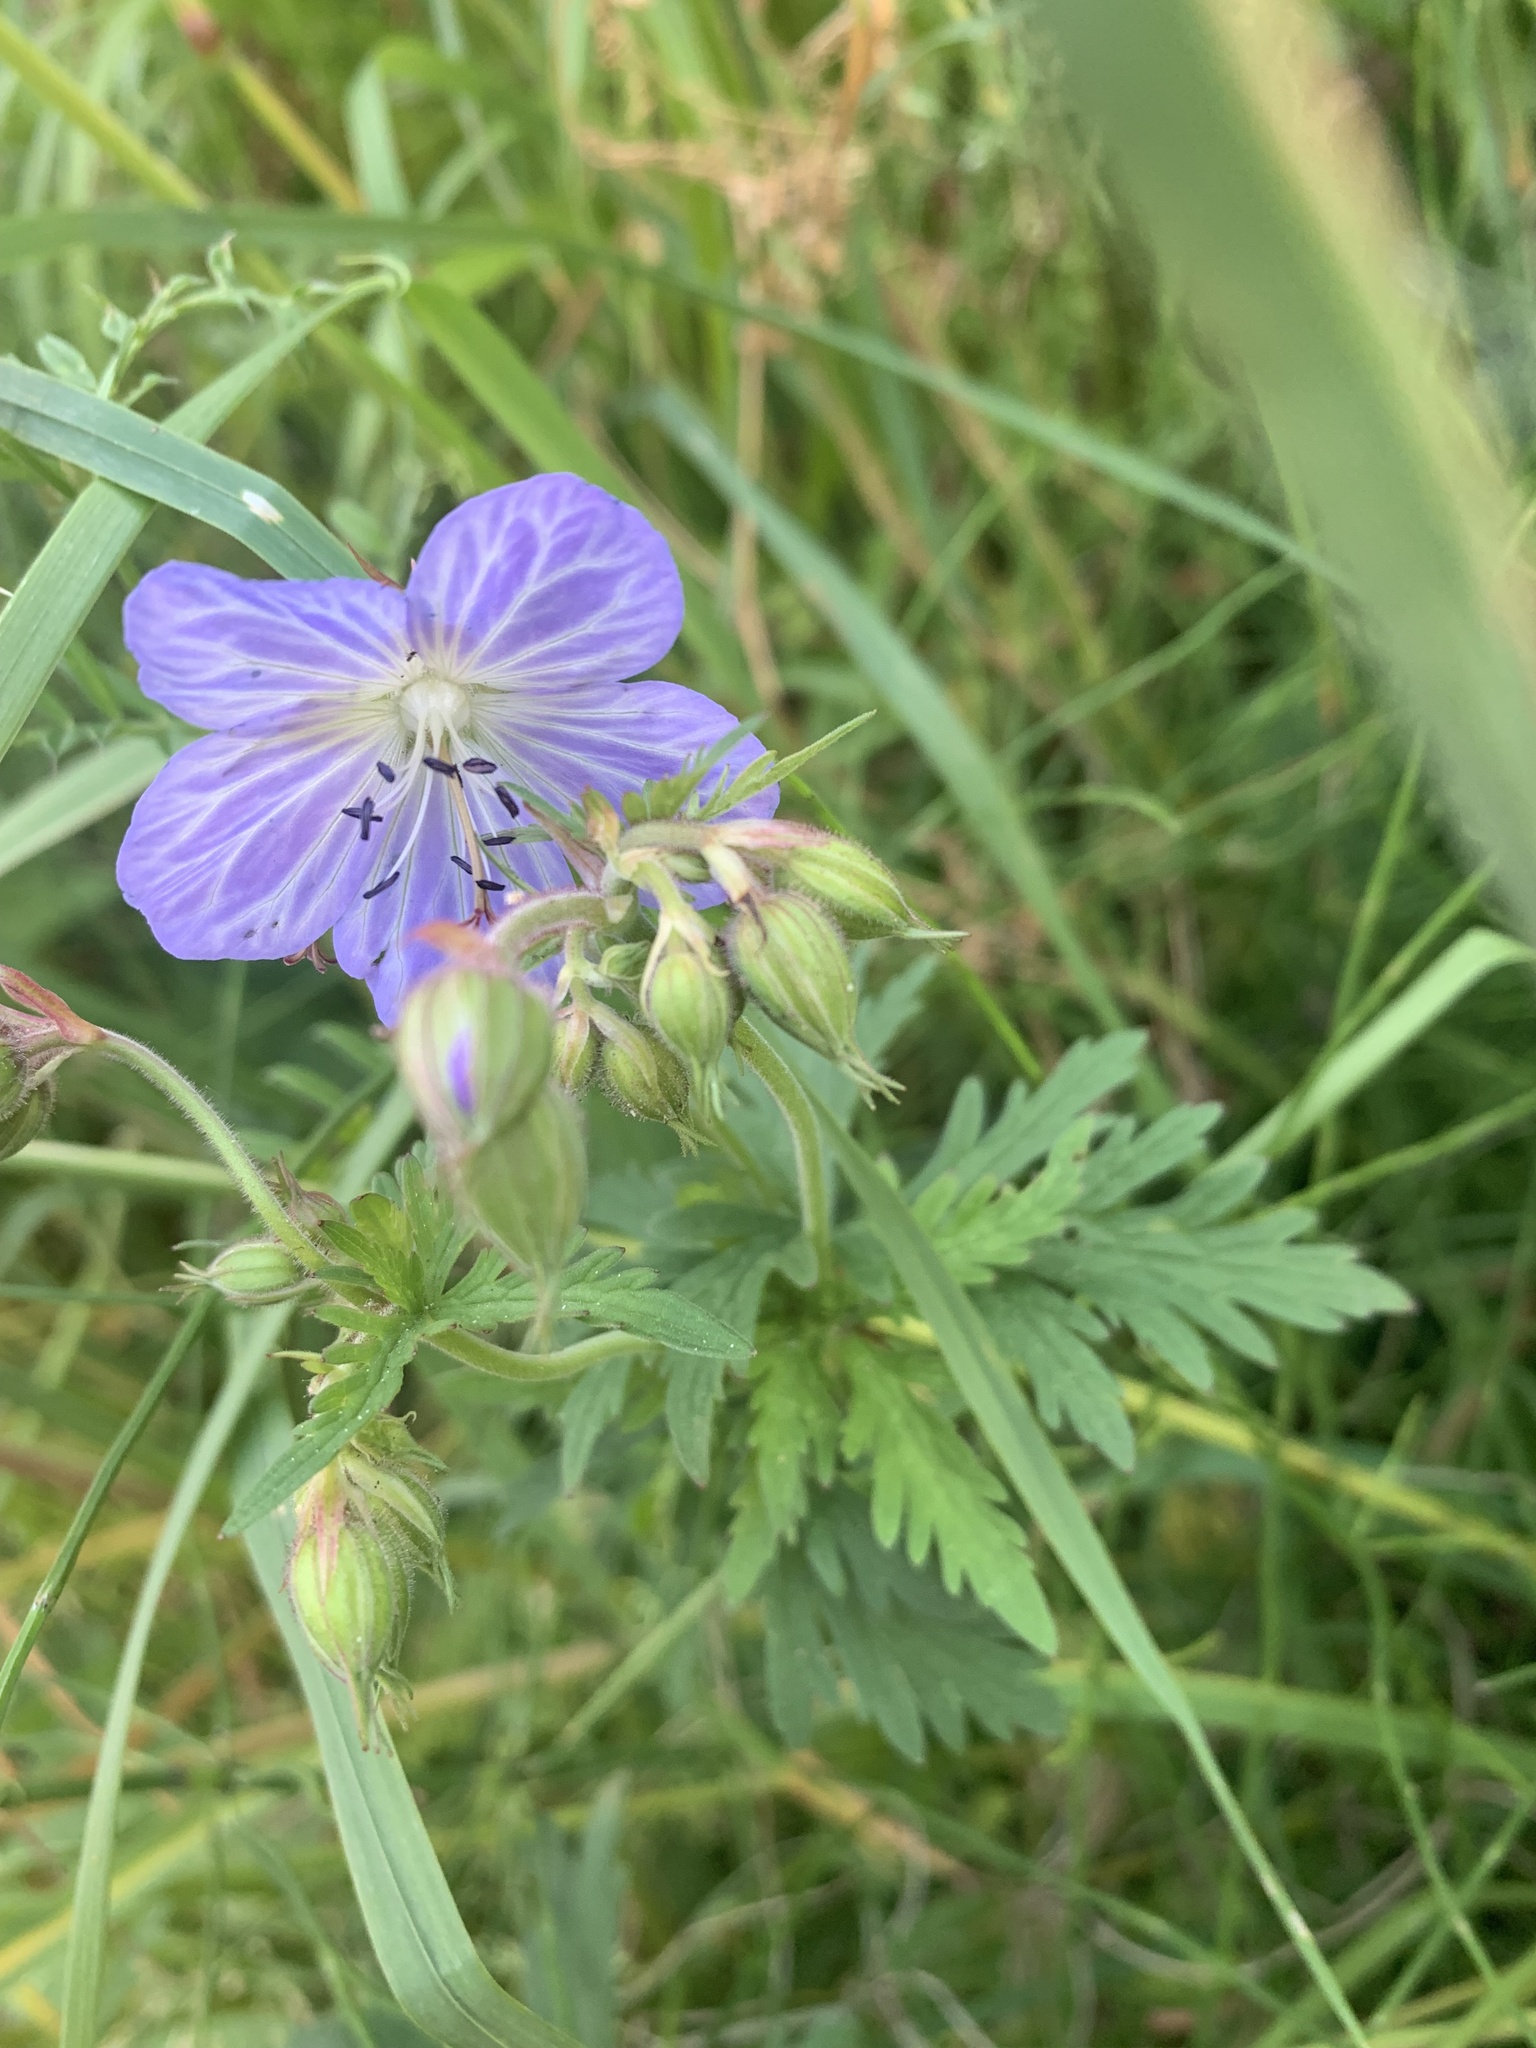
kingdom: Plantae
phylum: Tracheophyta
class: Magnoliopsida
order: Geraniales
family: Geraniaceae
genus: Geranium
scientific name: Geranium pratense
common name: Meadow crane's-bill
